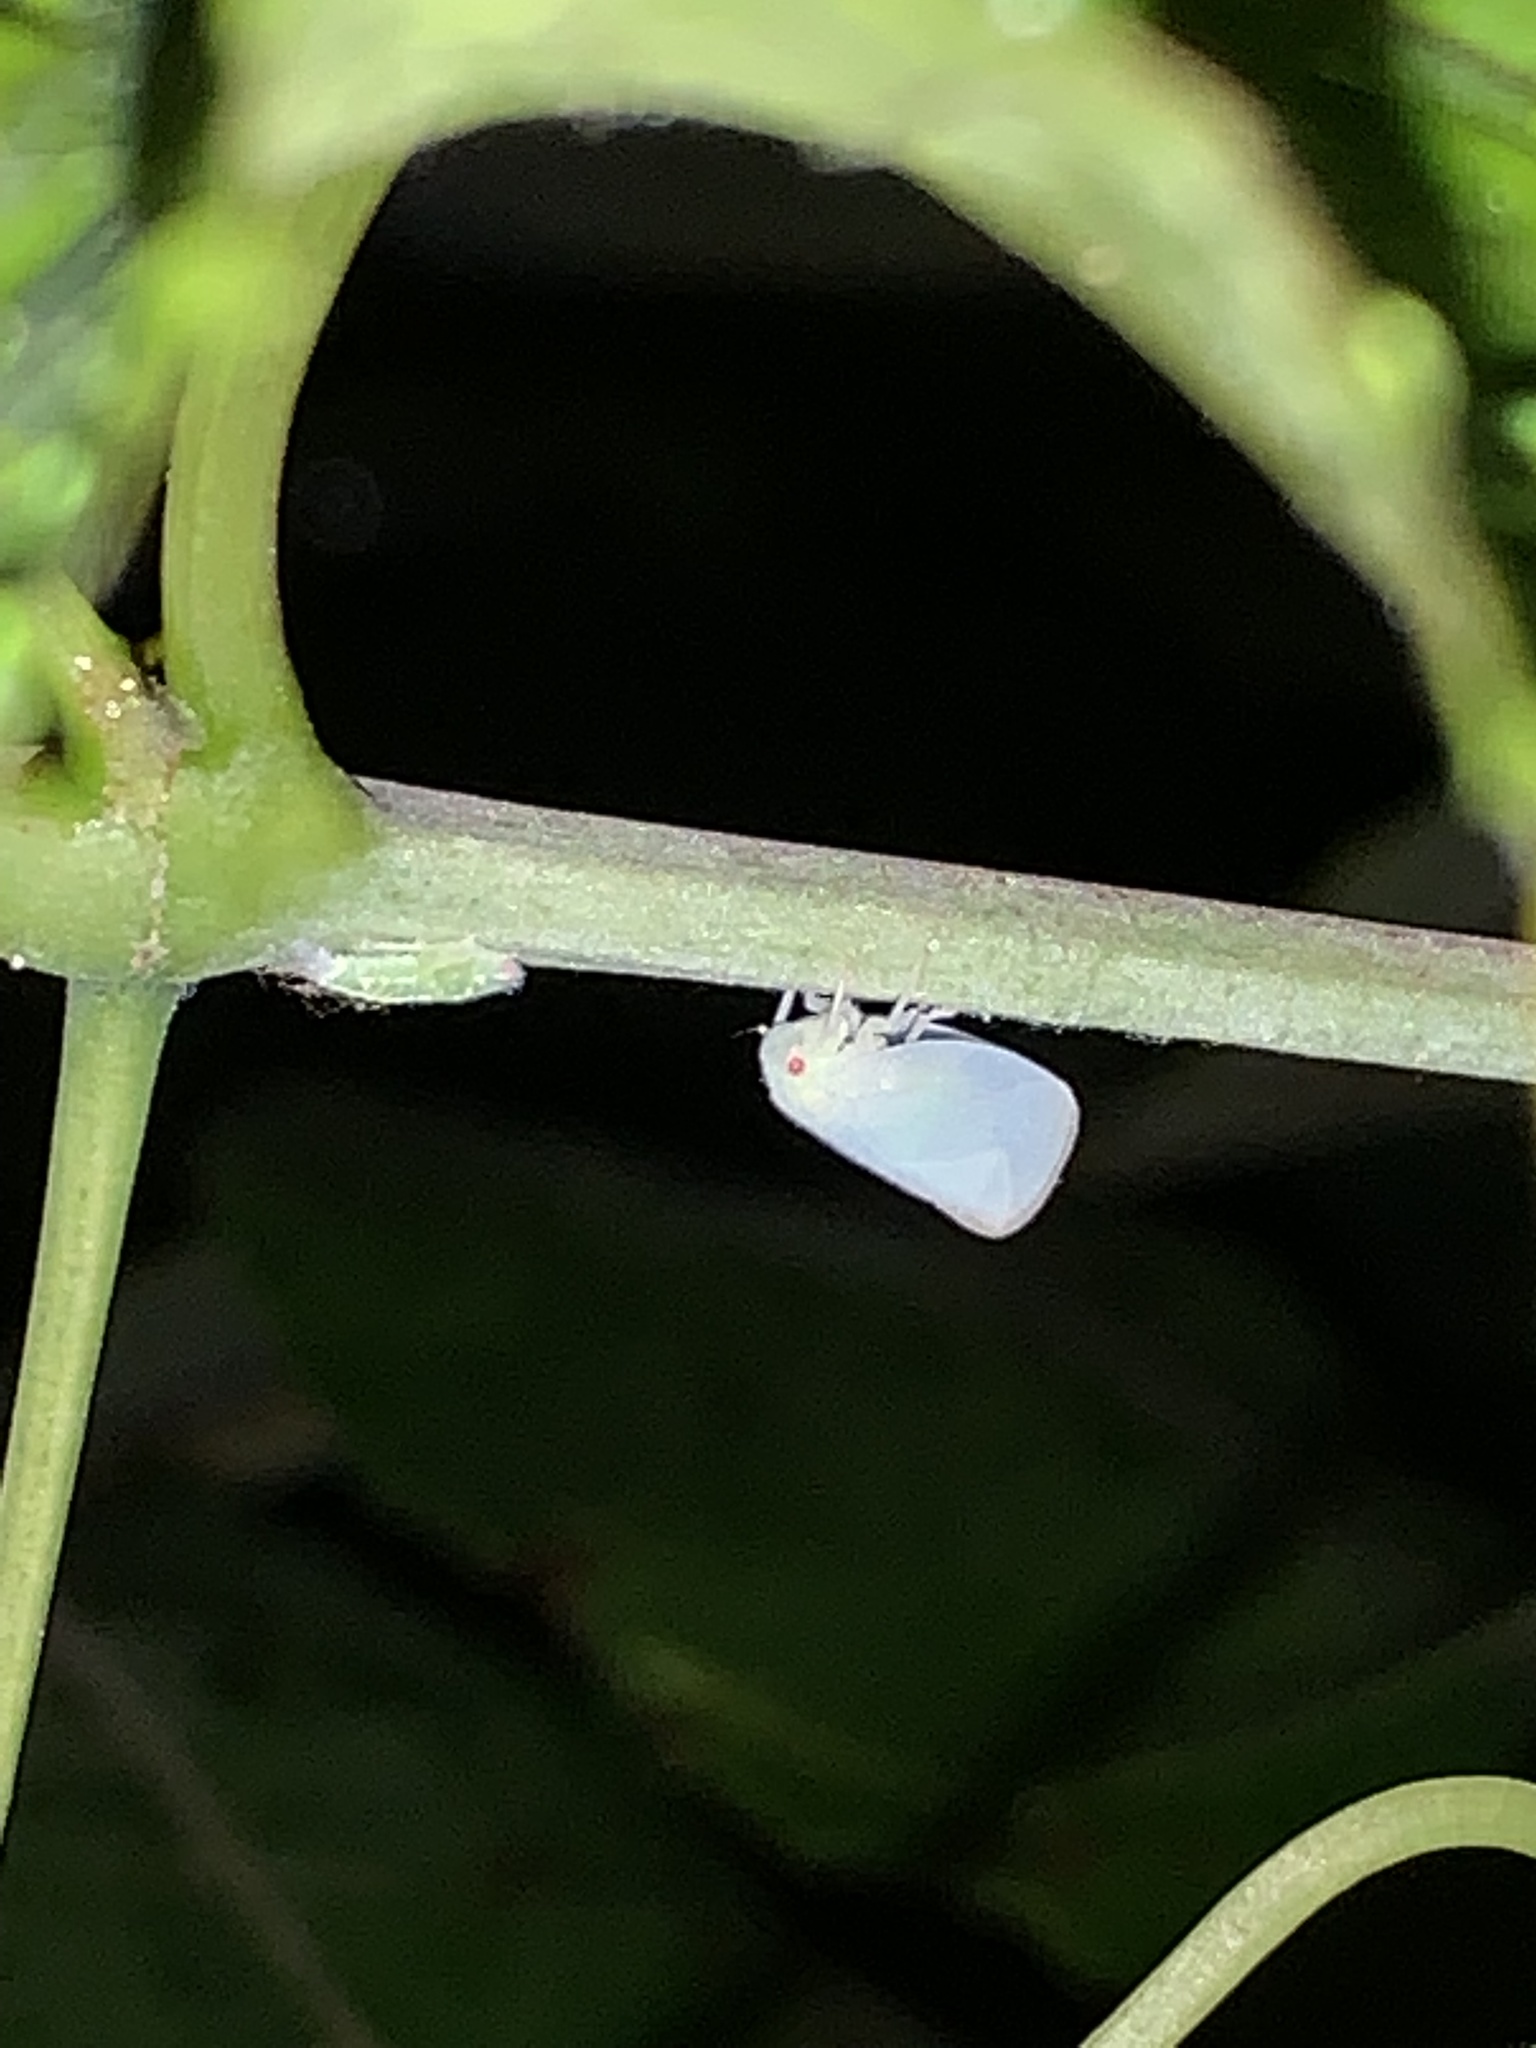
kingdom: Animalia
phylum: Arthropoda
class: Insecta
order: Hemiptera
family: Flatidae
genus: Ormenoides
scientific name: Ormenoides venusta
